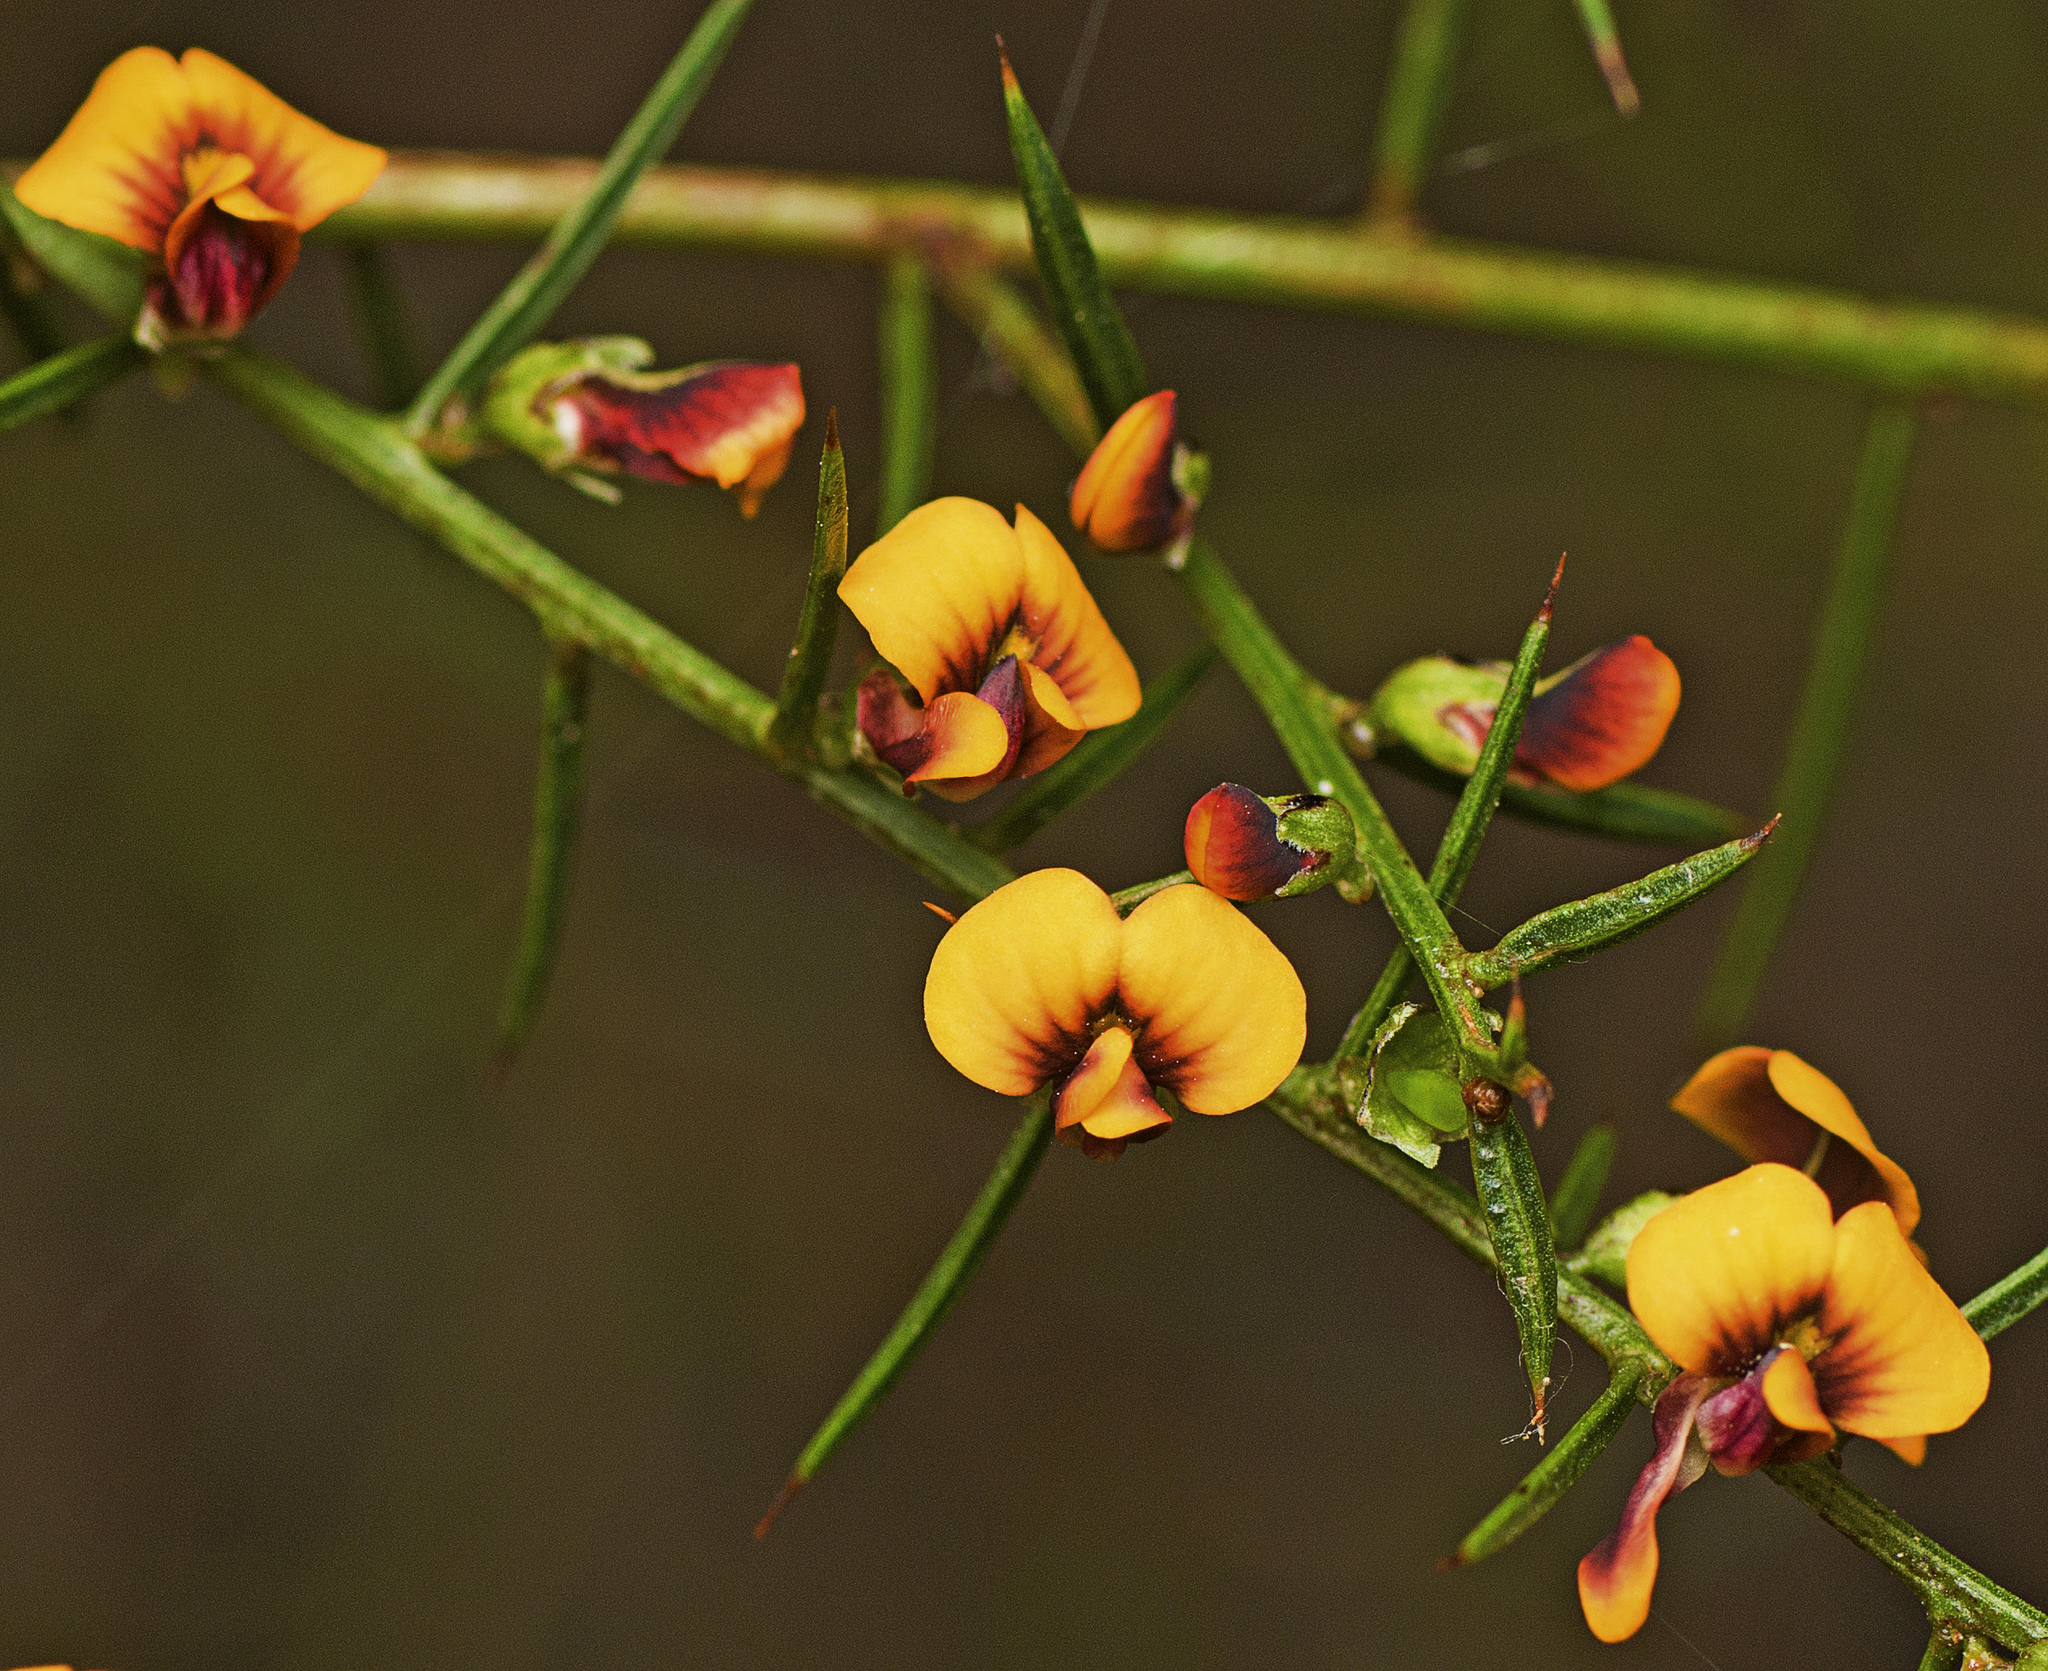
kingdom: Plantae
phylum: Tracheophyta
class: Magnoliopsida
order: Fabales
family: Fabaceae
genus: Daviesia
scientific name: Daviesia ulicifolia
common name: Gorse bitter-pea
